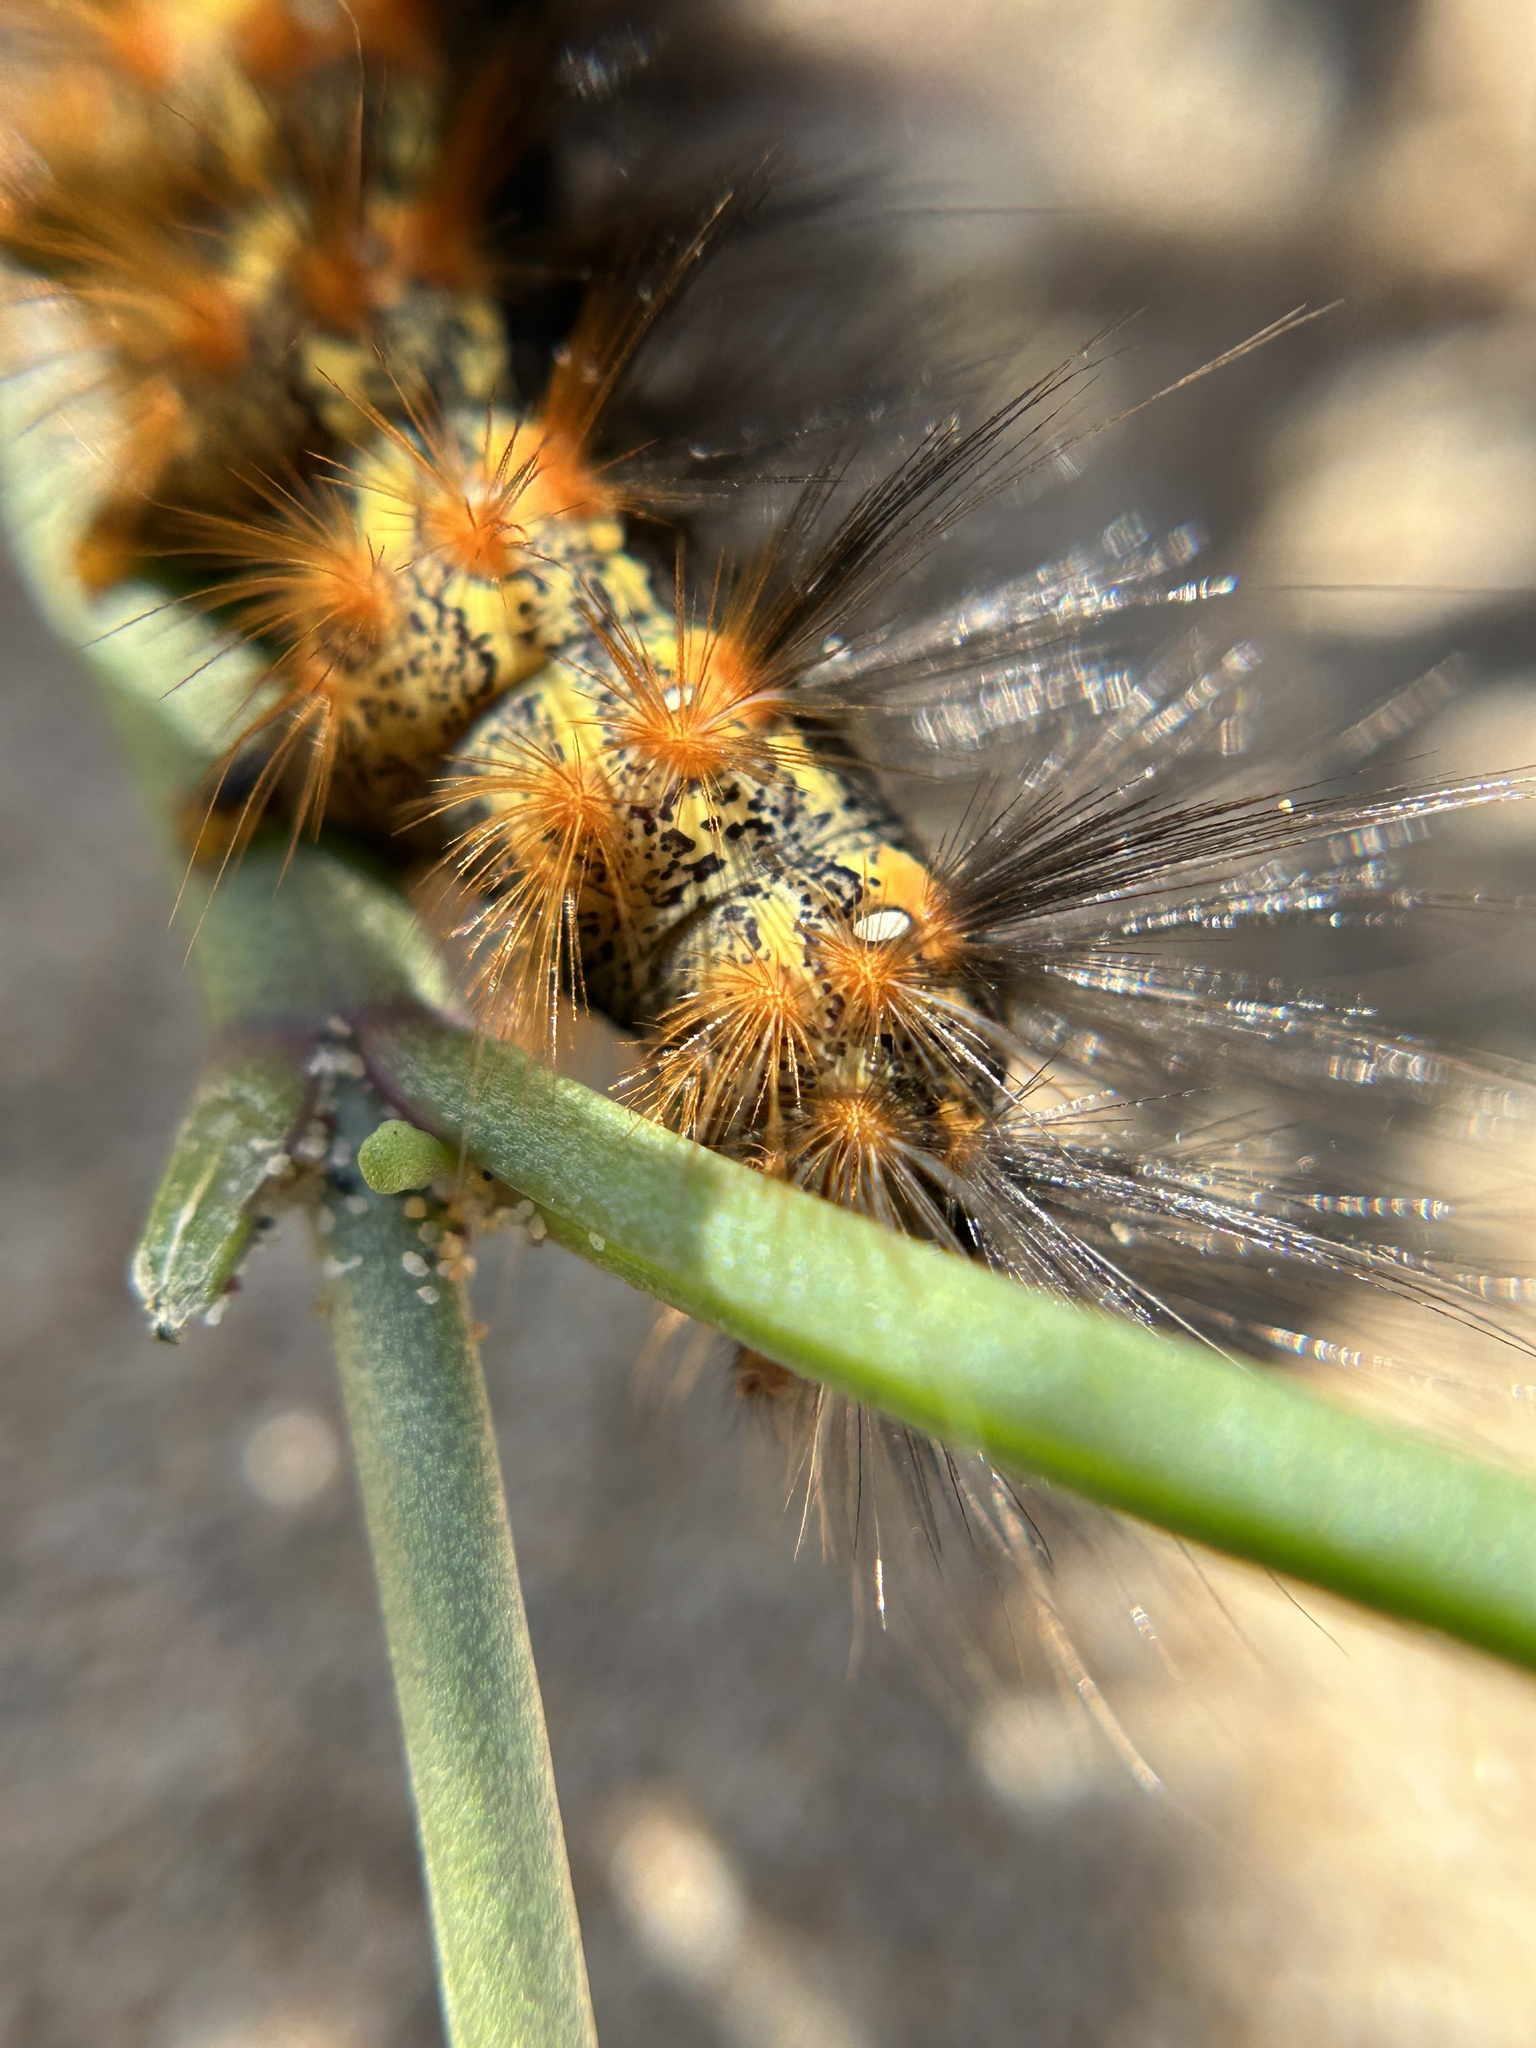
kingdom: Animalia
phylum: Arthropoda
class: Insecta
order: Lepidoptera
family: Erebidae
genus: Estigmene
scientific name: Estigmene acrea
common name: Salt marsh moth
